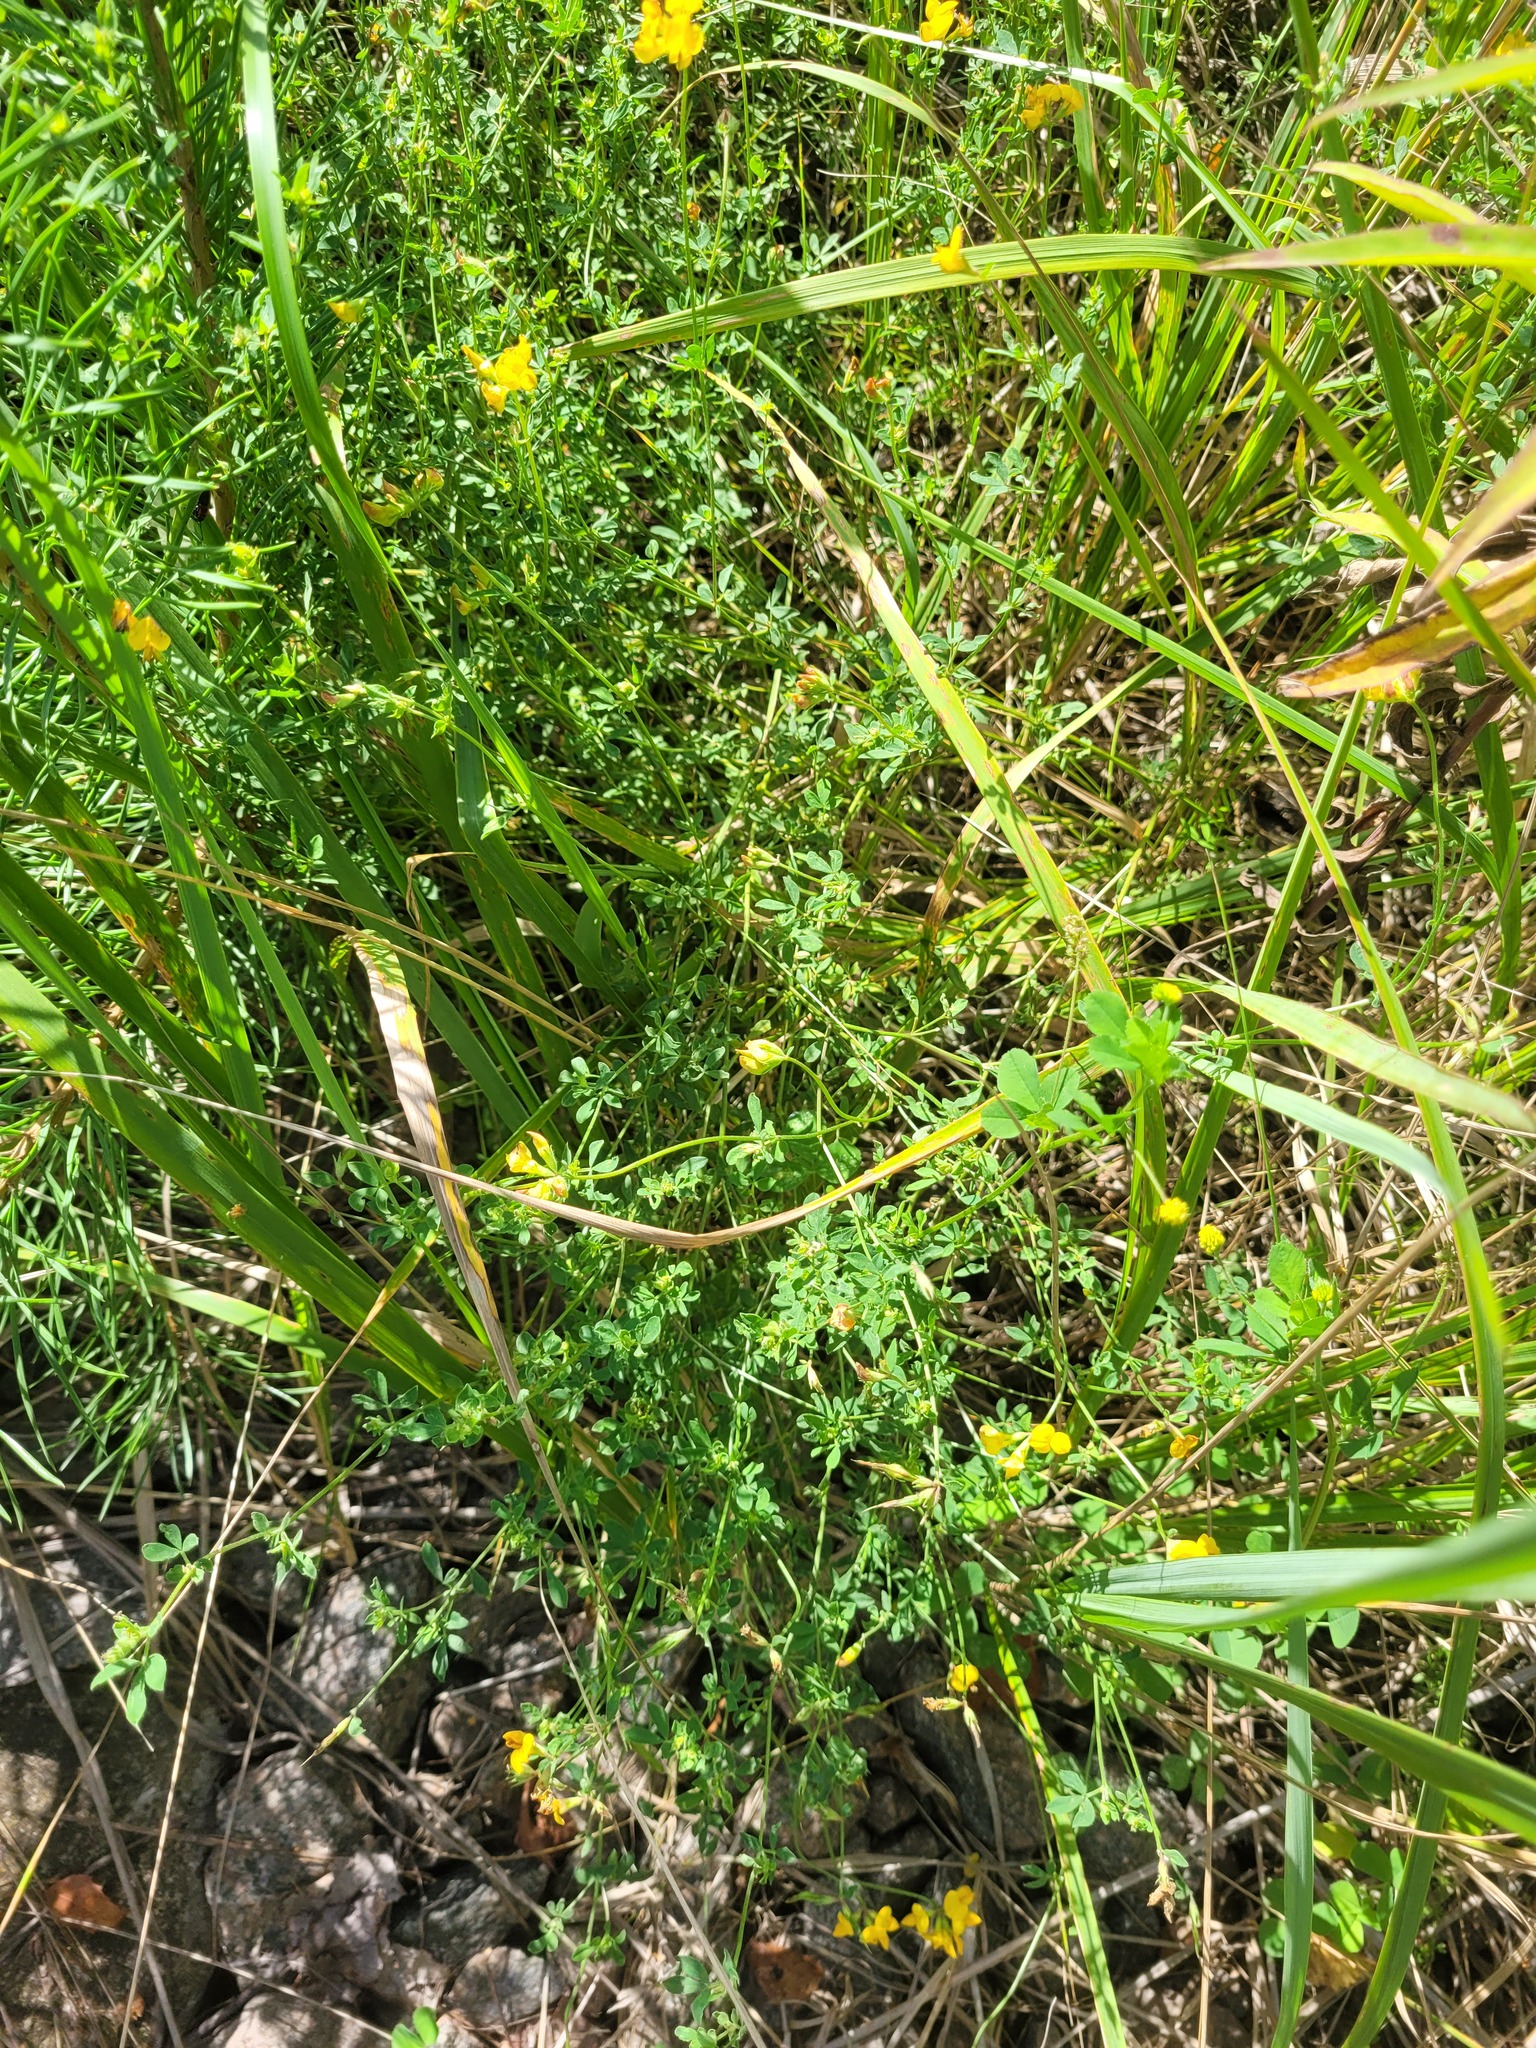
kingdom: Plantae
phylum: Tracheophyta
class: Magnoliopsida
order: Fabales
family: Fabaceae
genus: Lotus
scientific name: Lotus corniculatus
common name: Common bird's-foot-trefoil
